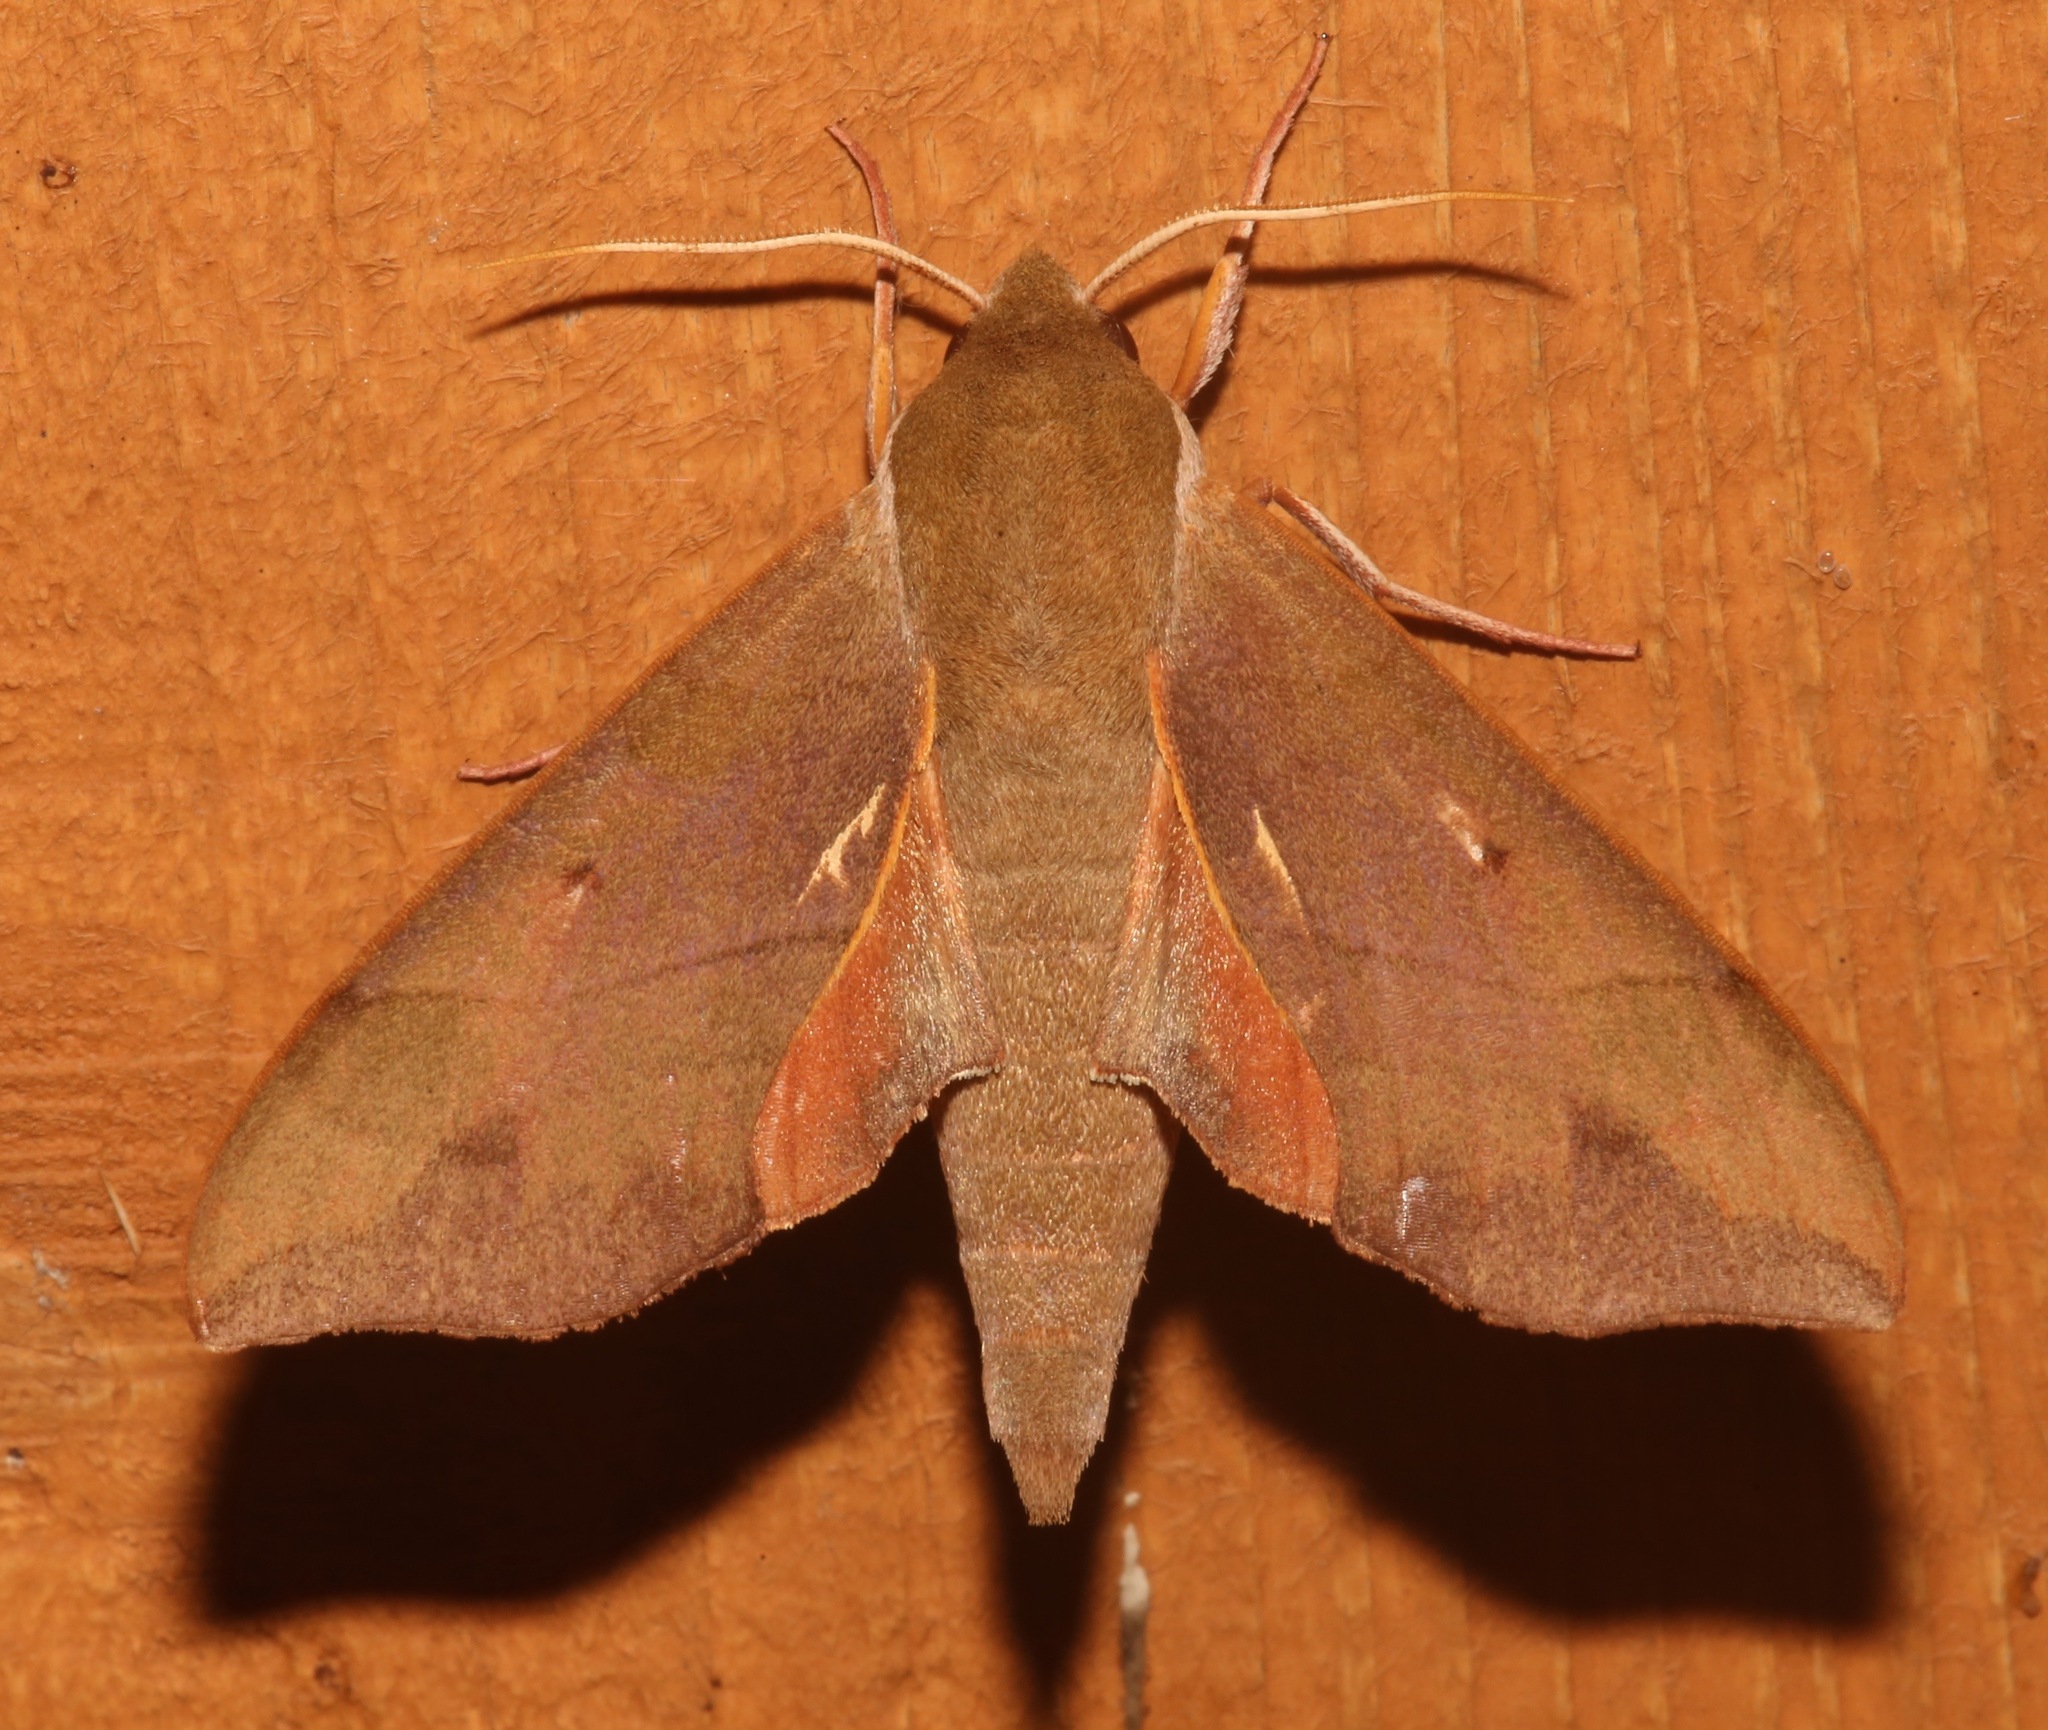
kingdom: Animalia
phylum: Arthropoda
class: Insecta
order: Lepidoptera
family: Sphingidae
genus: Darapsa
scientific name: Darapsa myron
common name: Hog sphinx
